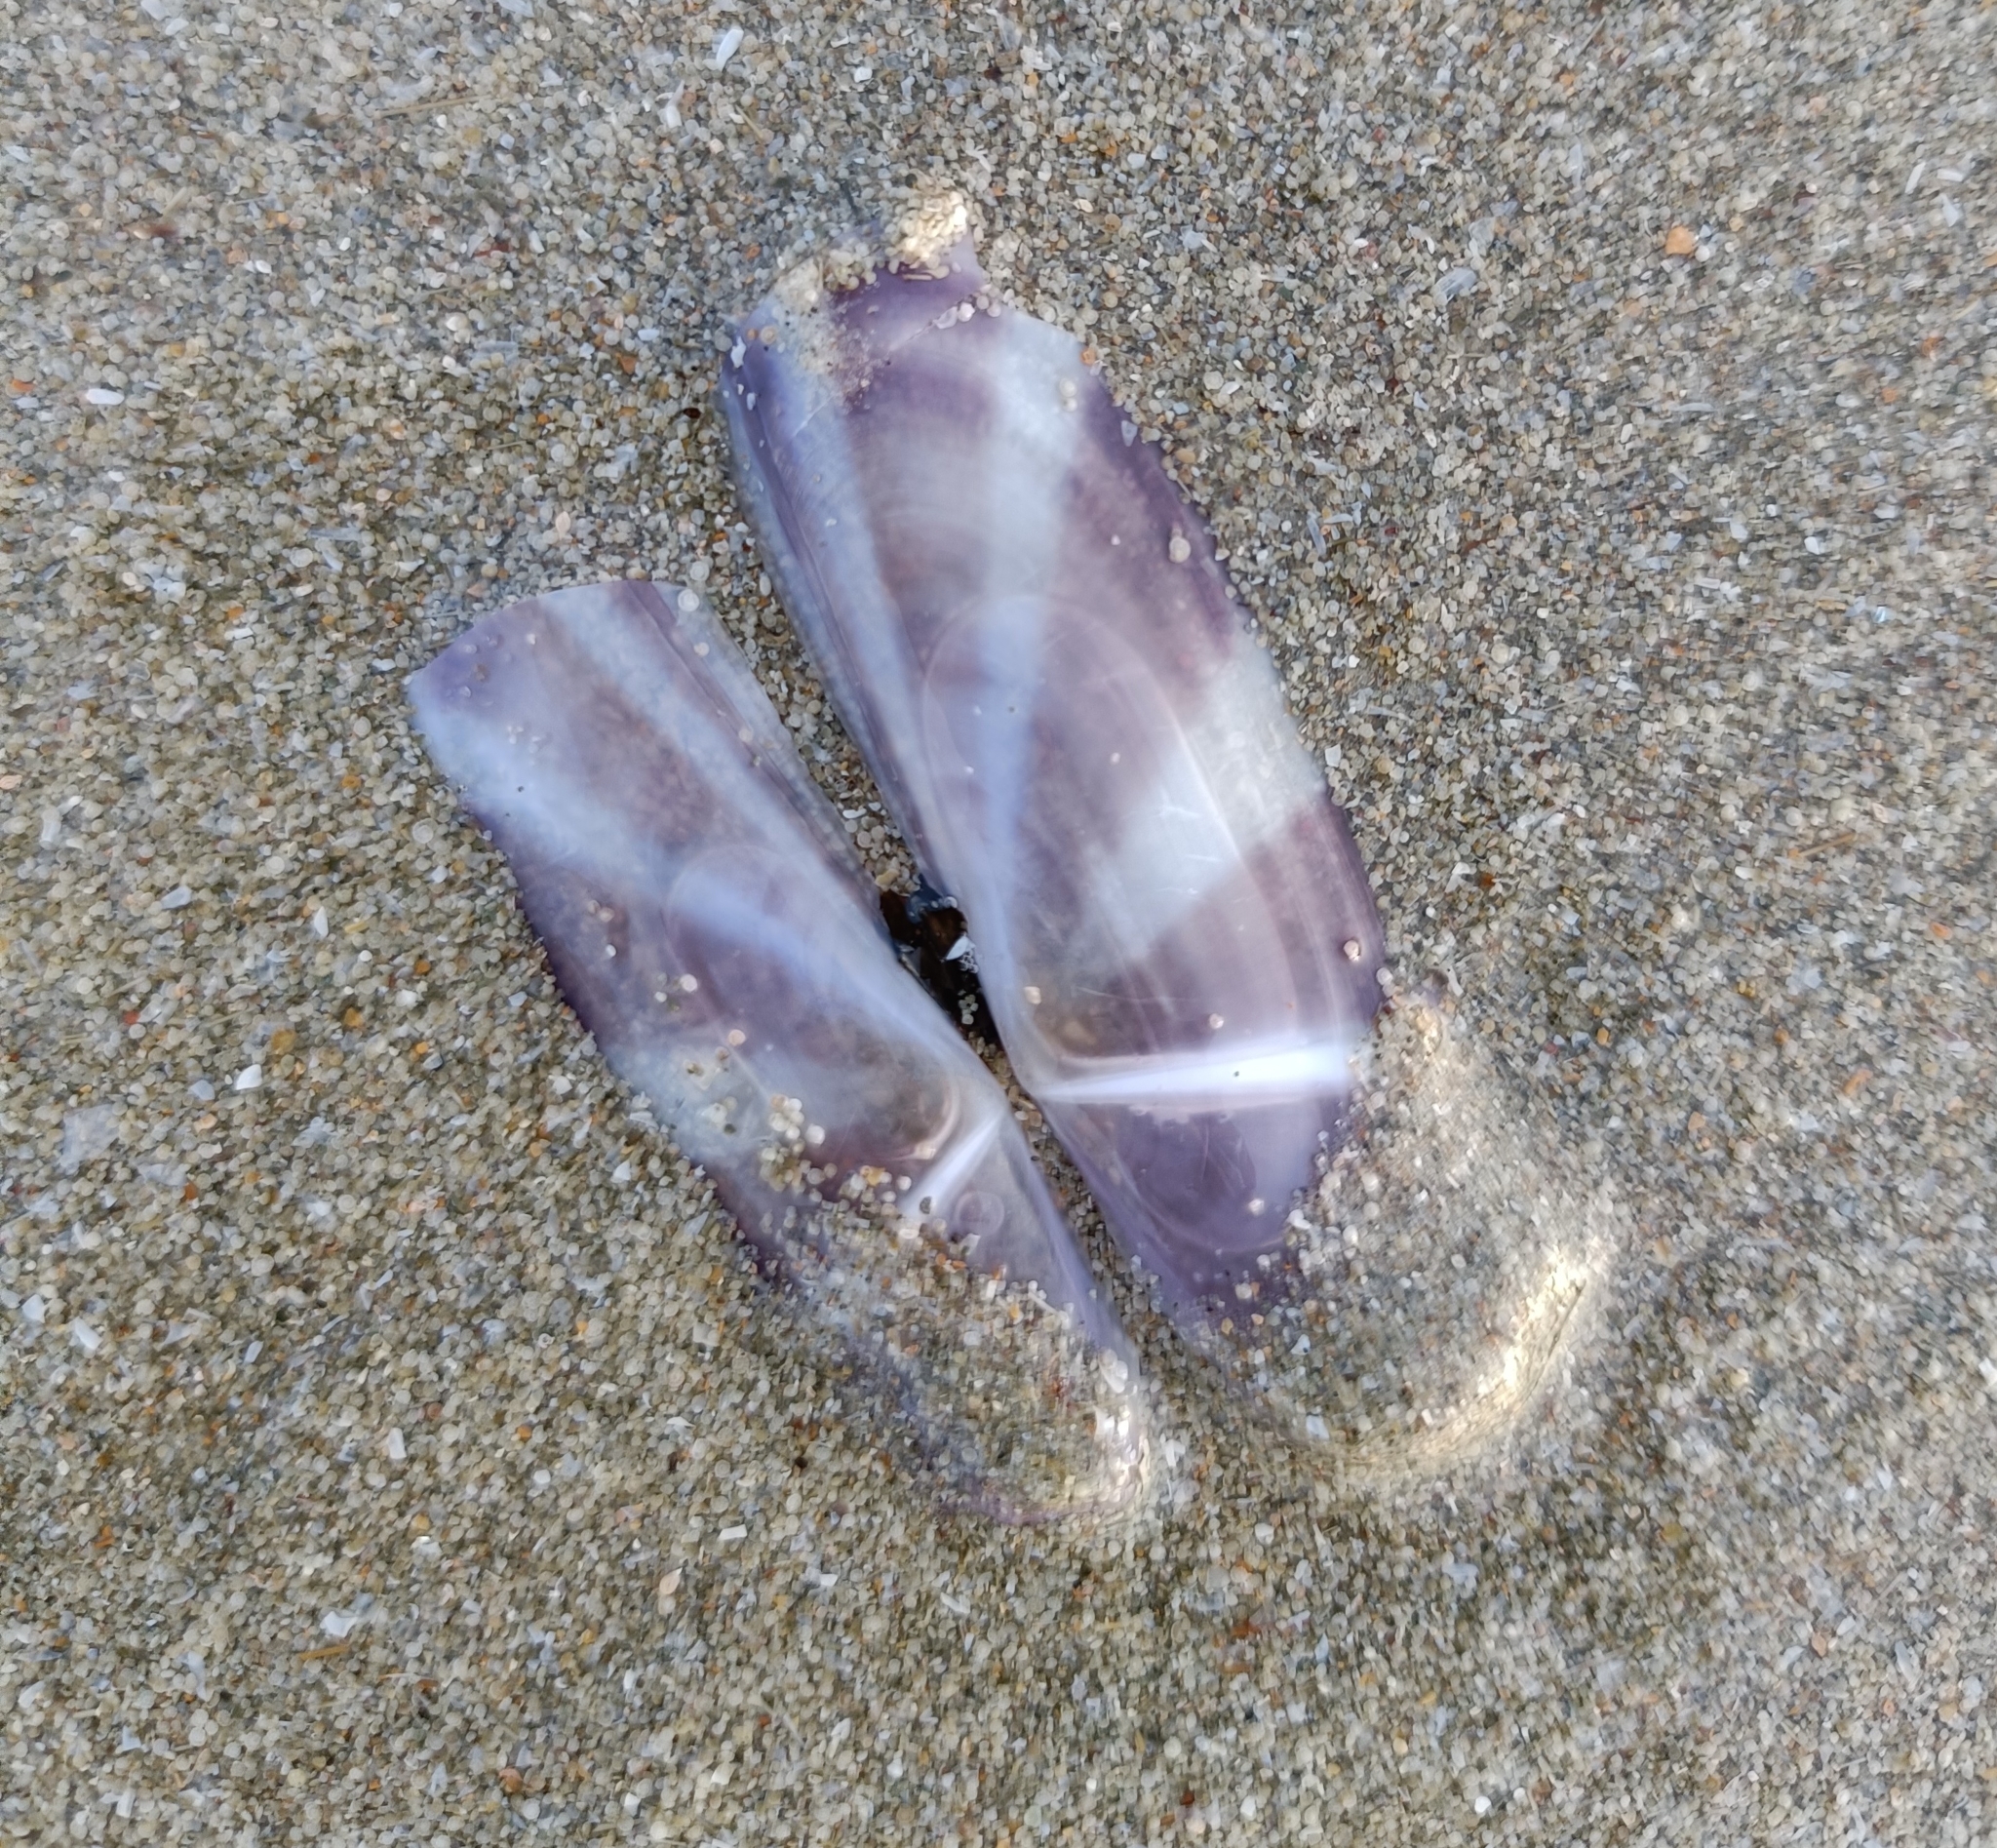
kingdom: Animalia
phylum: Mollusca
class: Bivalvia
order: Adapedonta
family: Pharidae
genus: Siliqua
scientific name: Siliqua radiata
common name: Sunset razor clam
